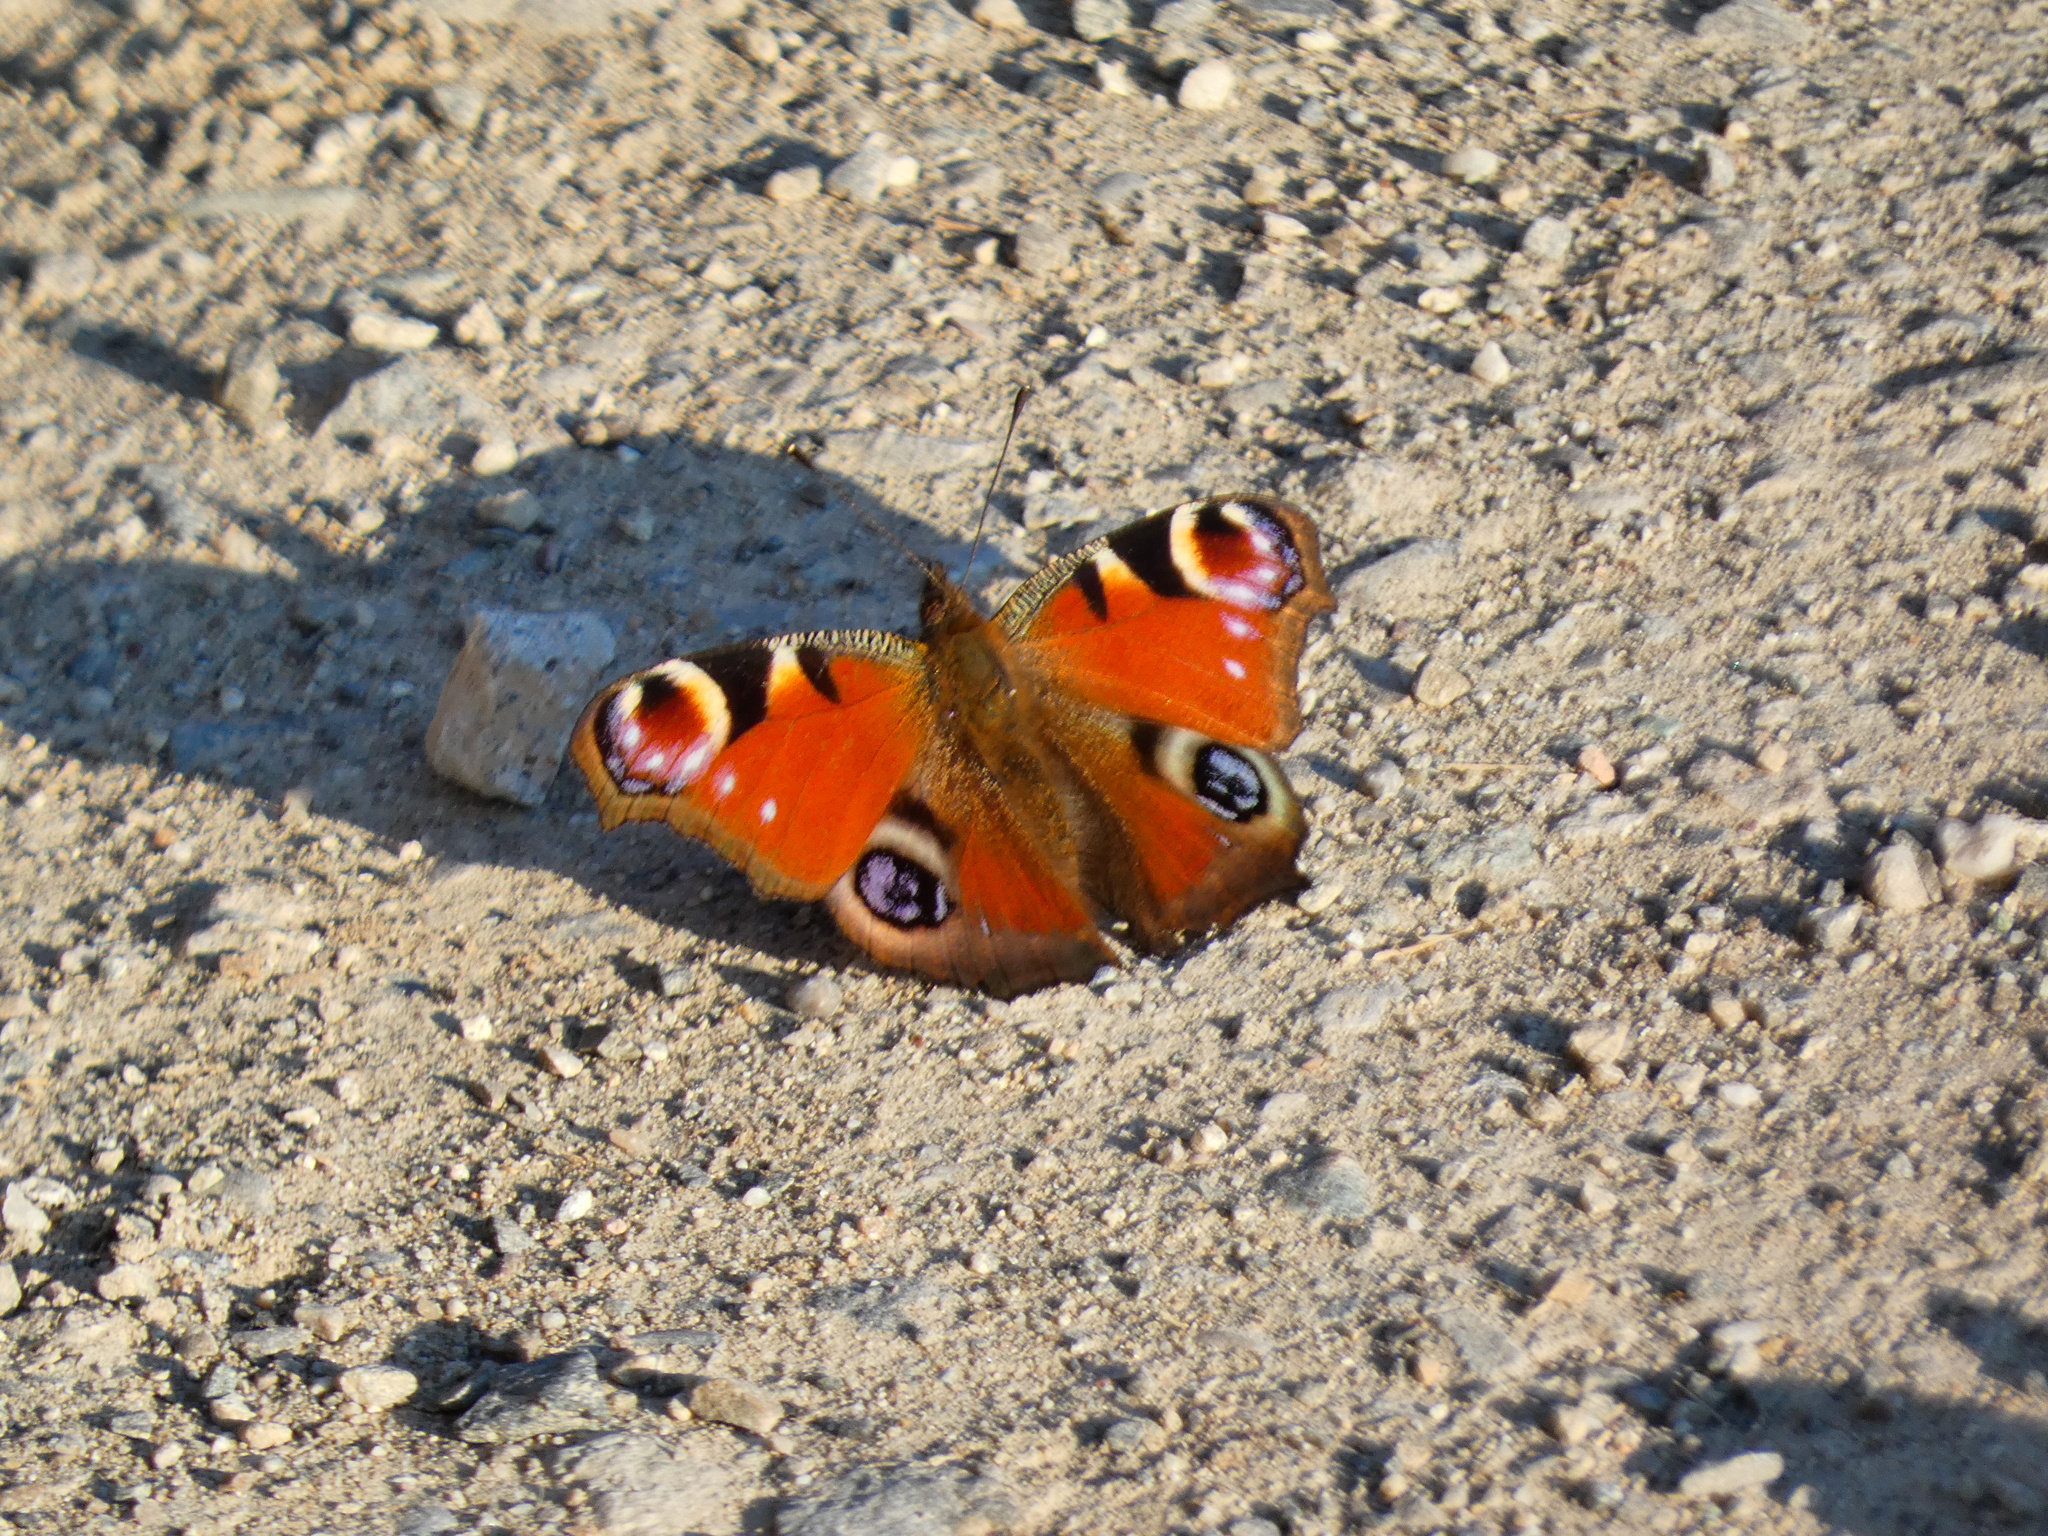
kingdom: Animalia
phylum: Arthropoda
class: Insecta
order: Lepidoptera
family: Nymphalidae
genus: Aglais
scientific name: Aglais io
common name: Peacock
